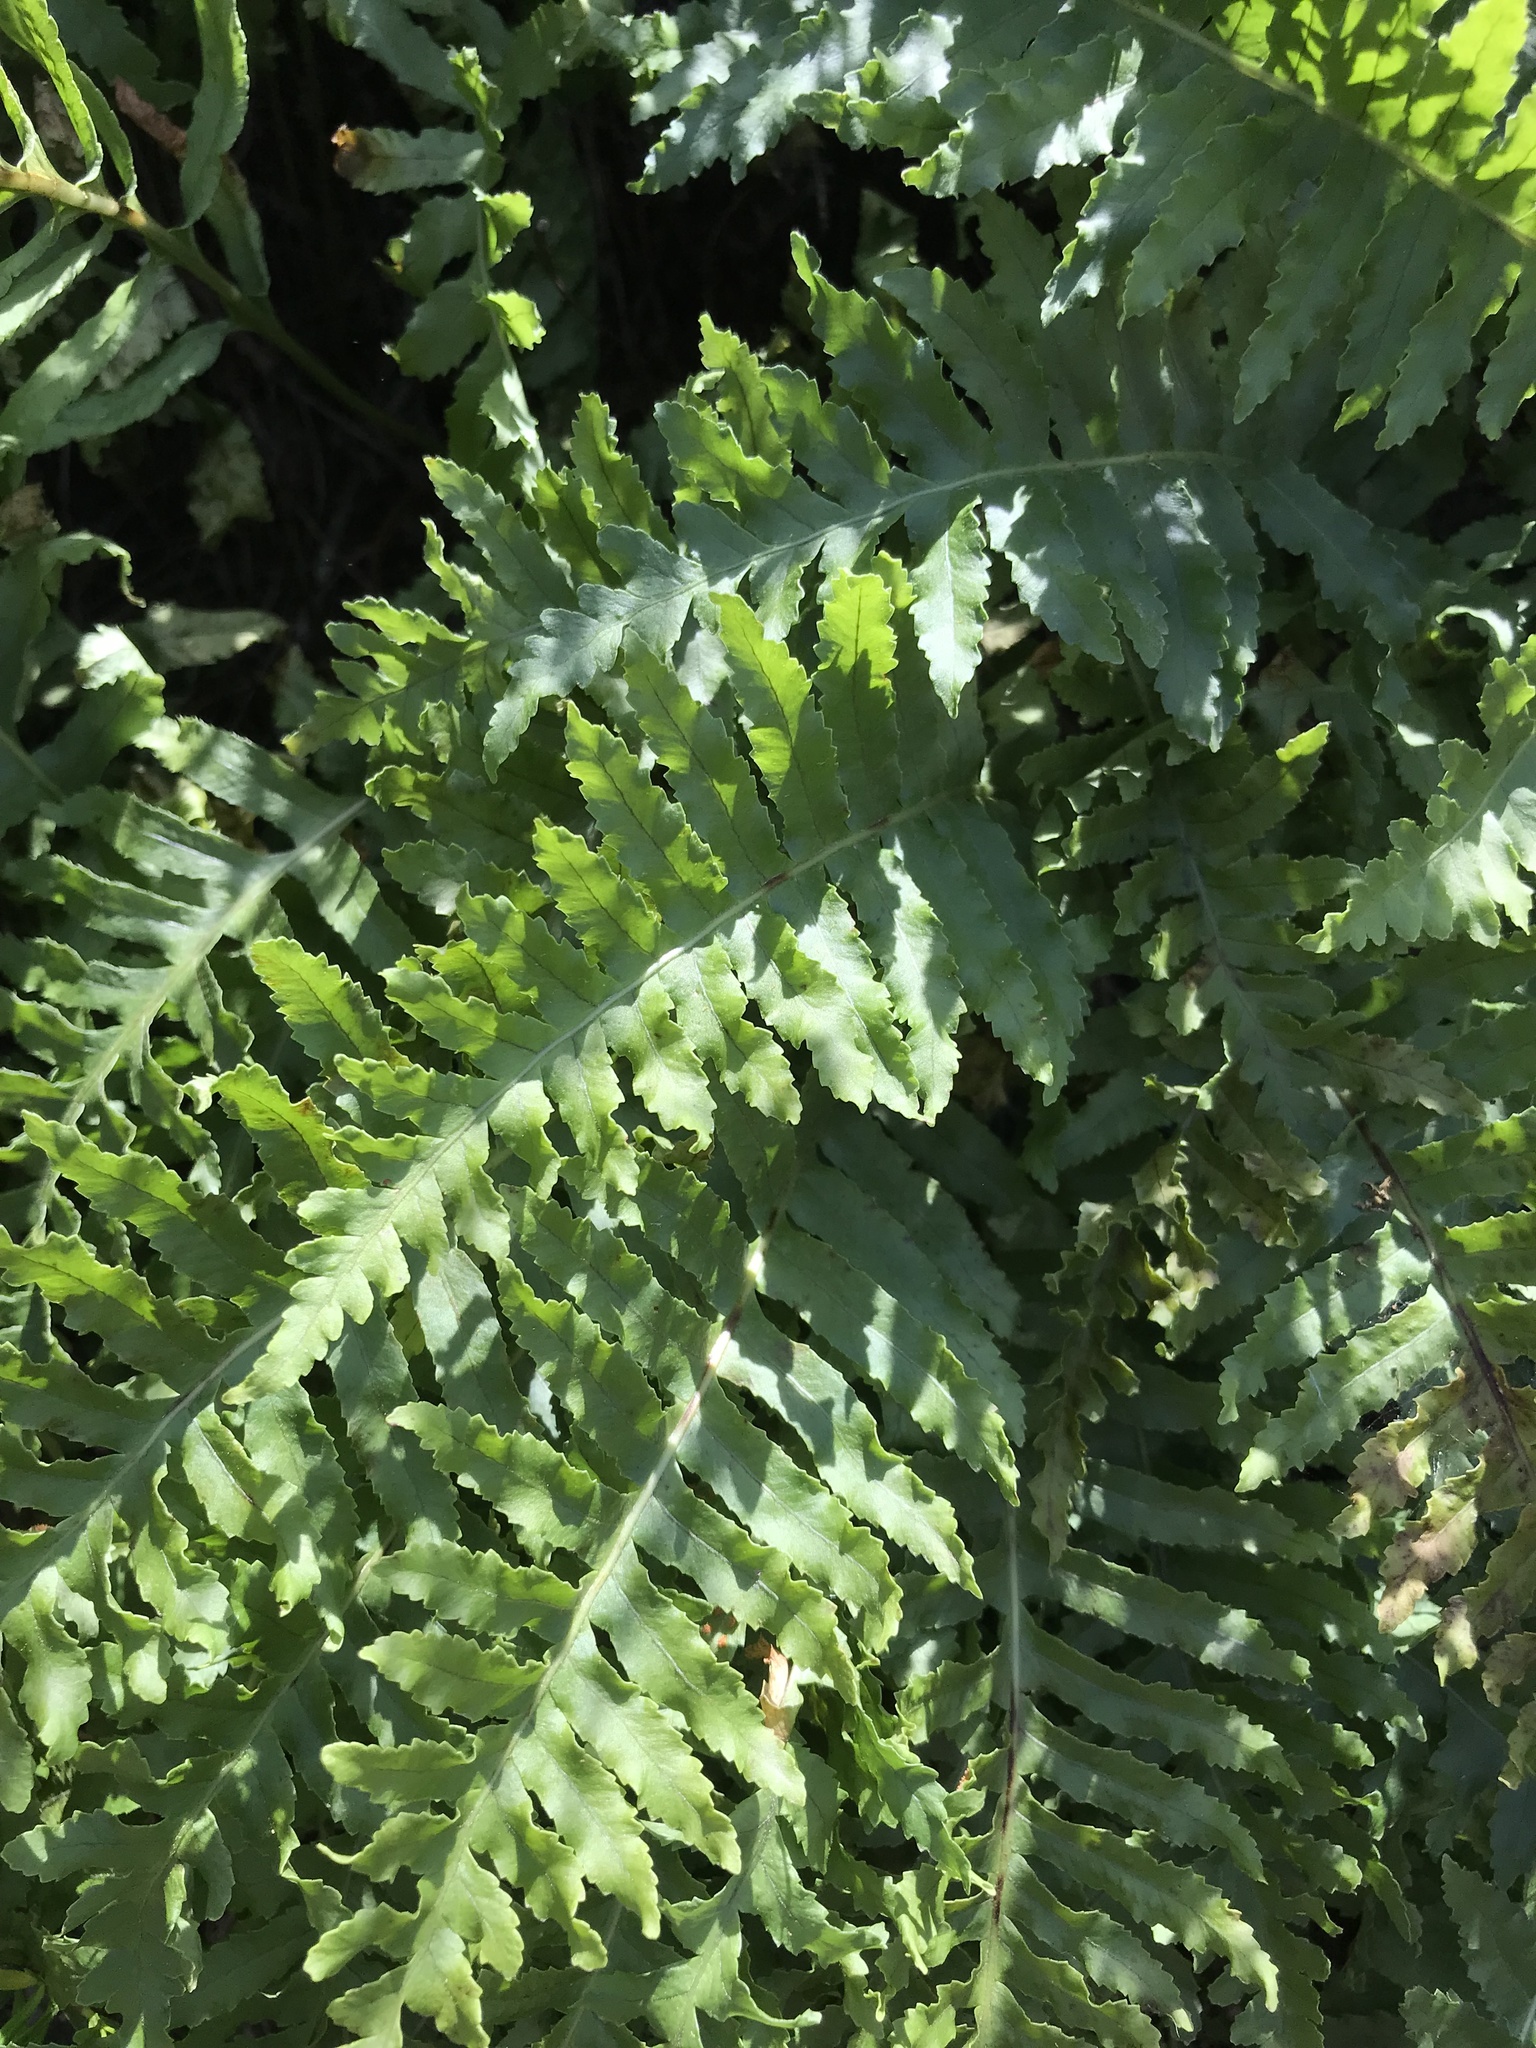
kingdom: Plantae
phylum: Tracheophyta
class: Polypodiopsida
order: Polypodiales
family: Polypodiaceae
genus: Polypodium
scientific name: Polypodium californicum
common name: California polypody
